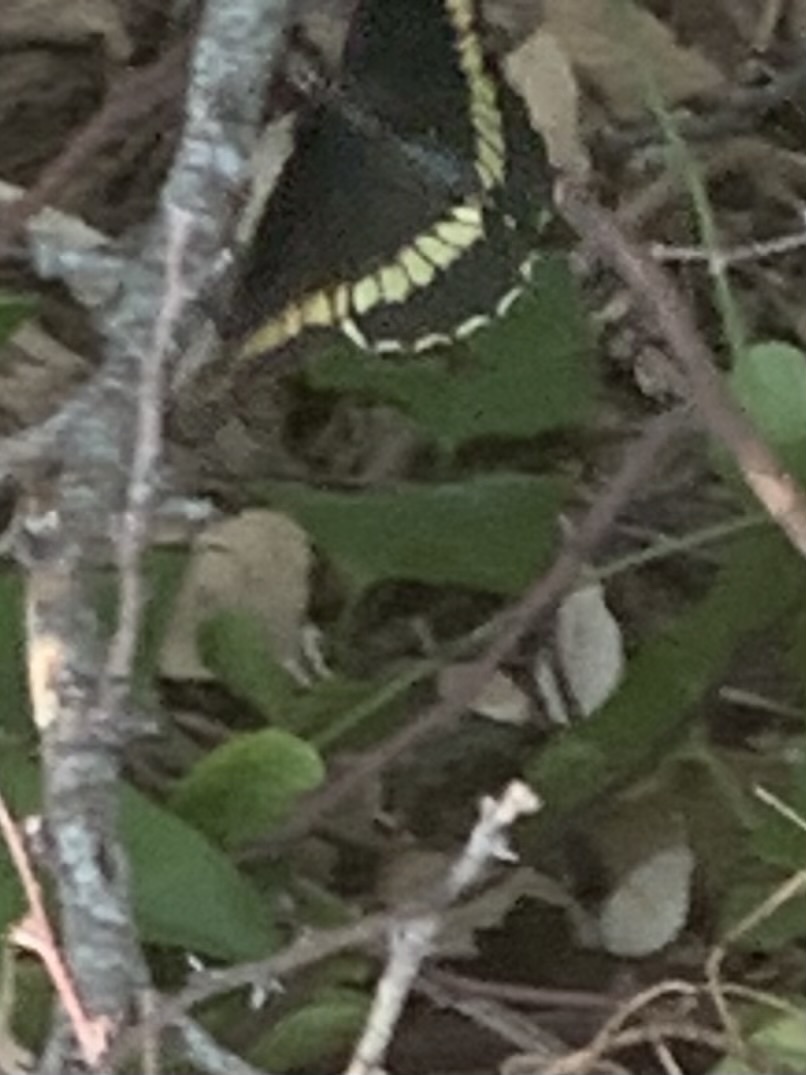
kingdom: Animalia
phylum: Arthropoda
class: Insecta
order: Lepidoptera
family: Papilionidae
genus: Battus
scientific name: Battus polydamas
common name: Polydamas swallowtail
